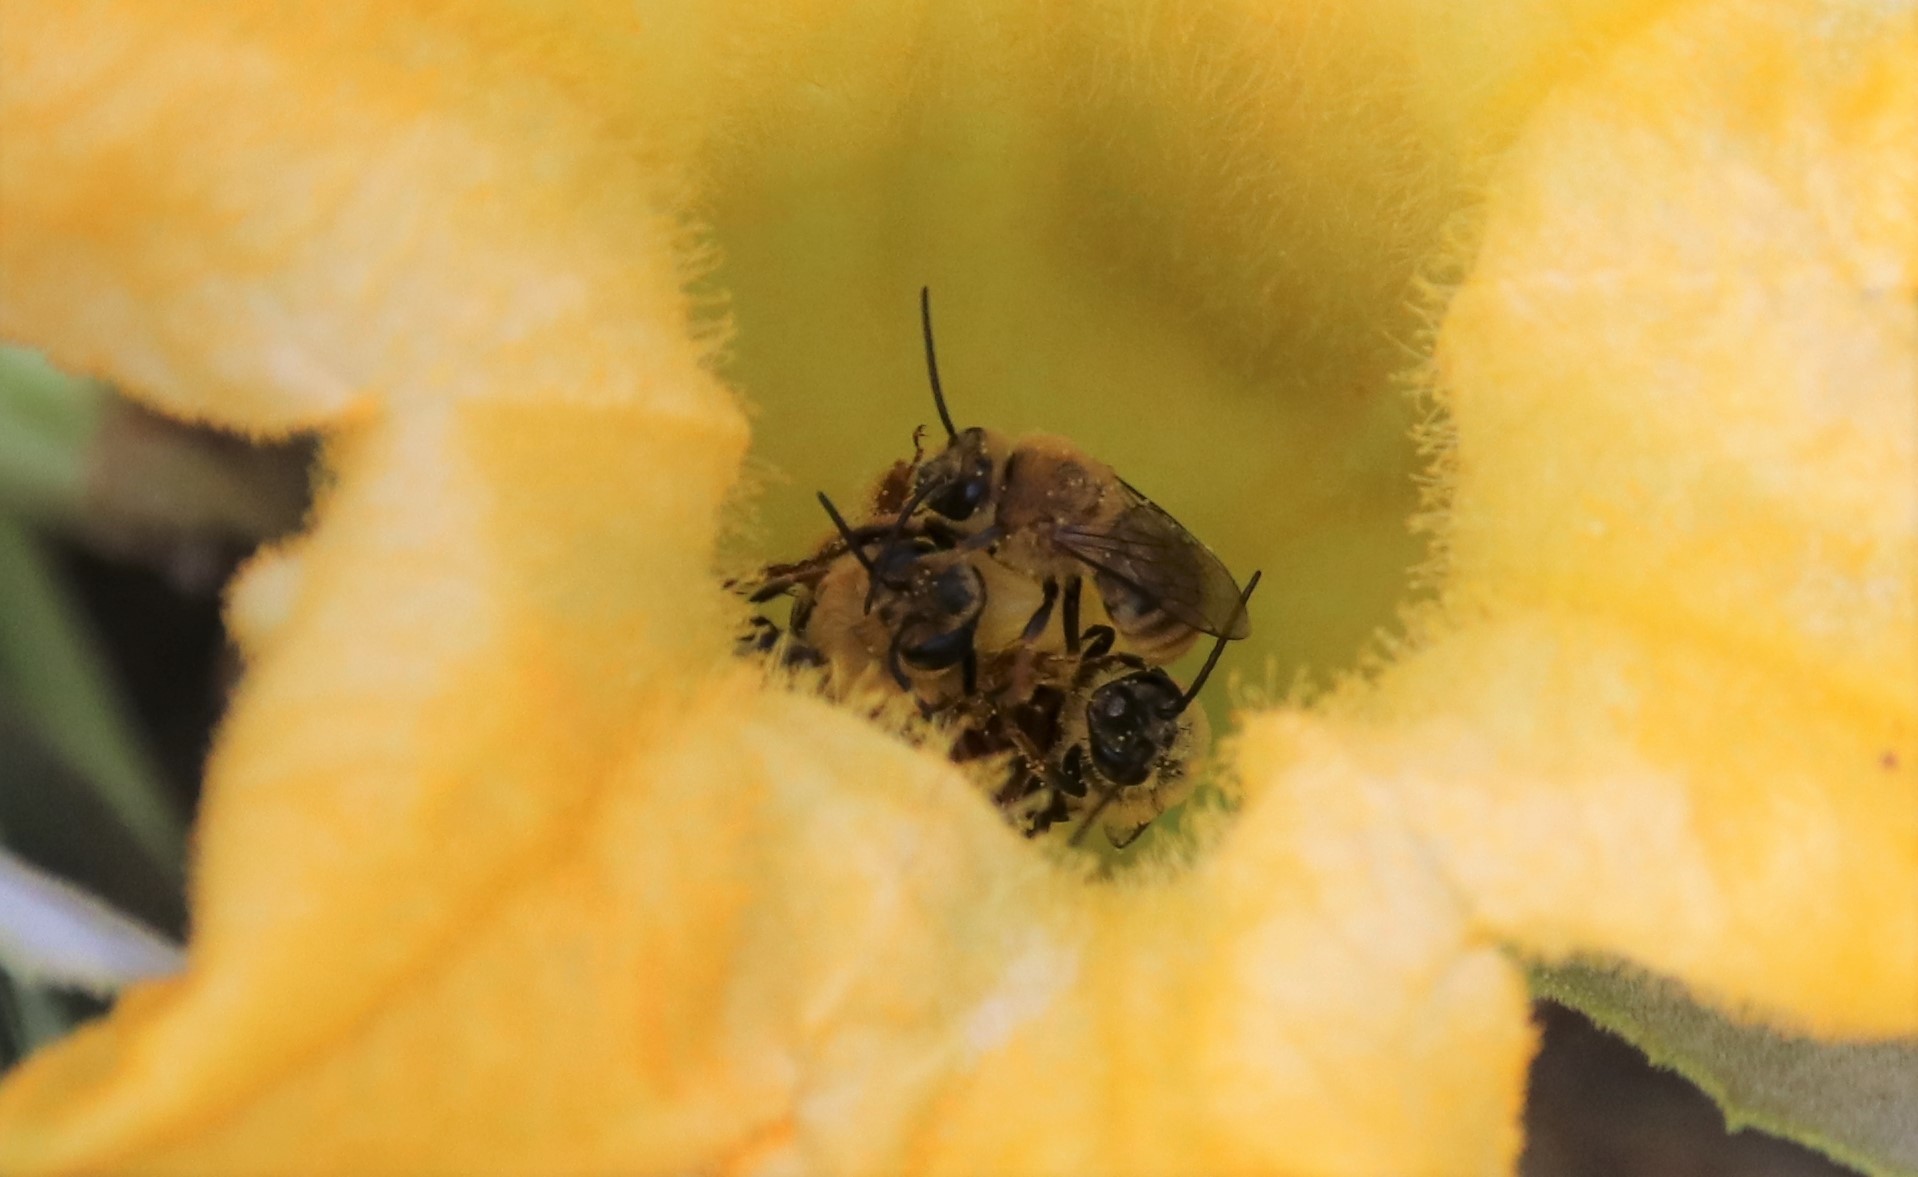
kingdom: Animalia
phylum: Arthropoda
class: Insecta
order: Hymenoptera
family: Apidae
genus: Apis
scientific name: Apis mellifera
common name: Honey bee
